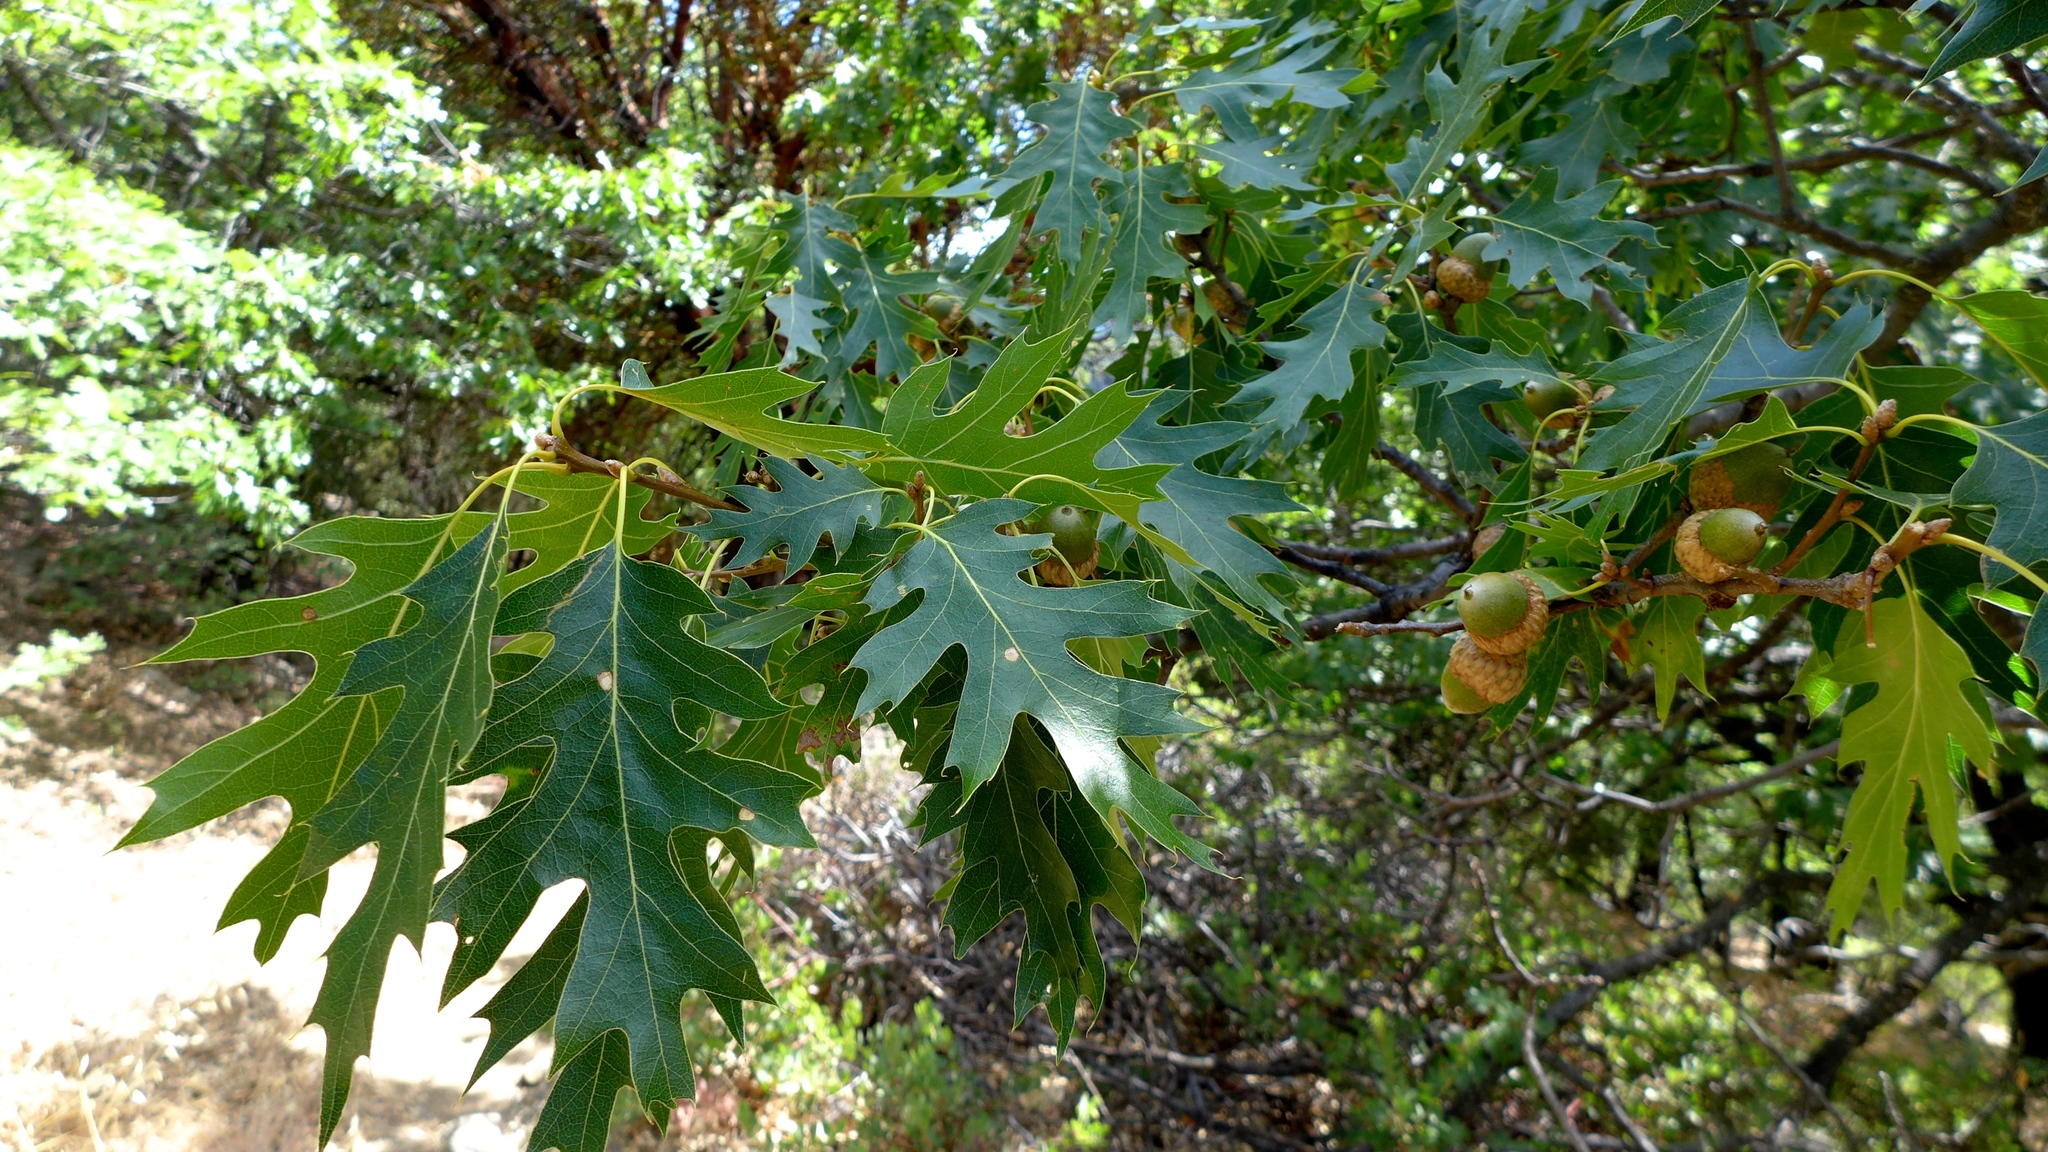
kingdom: Plantae
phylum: Tracheophyta
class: Magnoliopsida
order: Fagales
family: Fagaceae
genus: Quercus
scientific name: Quercus kelloggii
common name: California black oak
